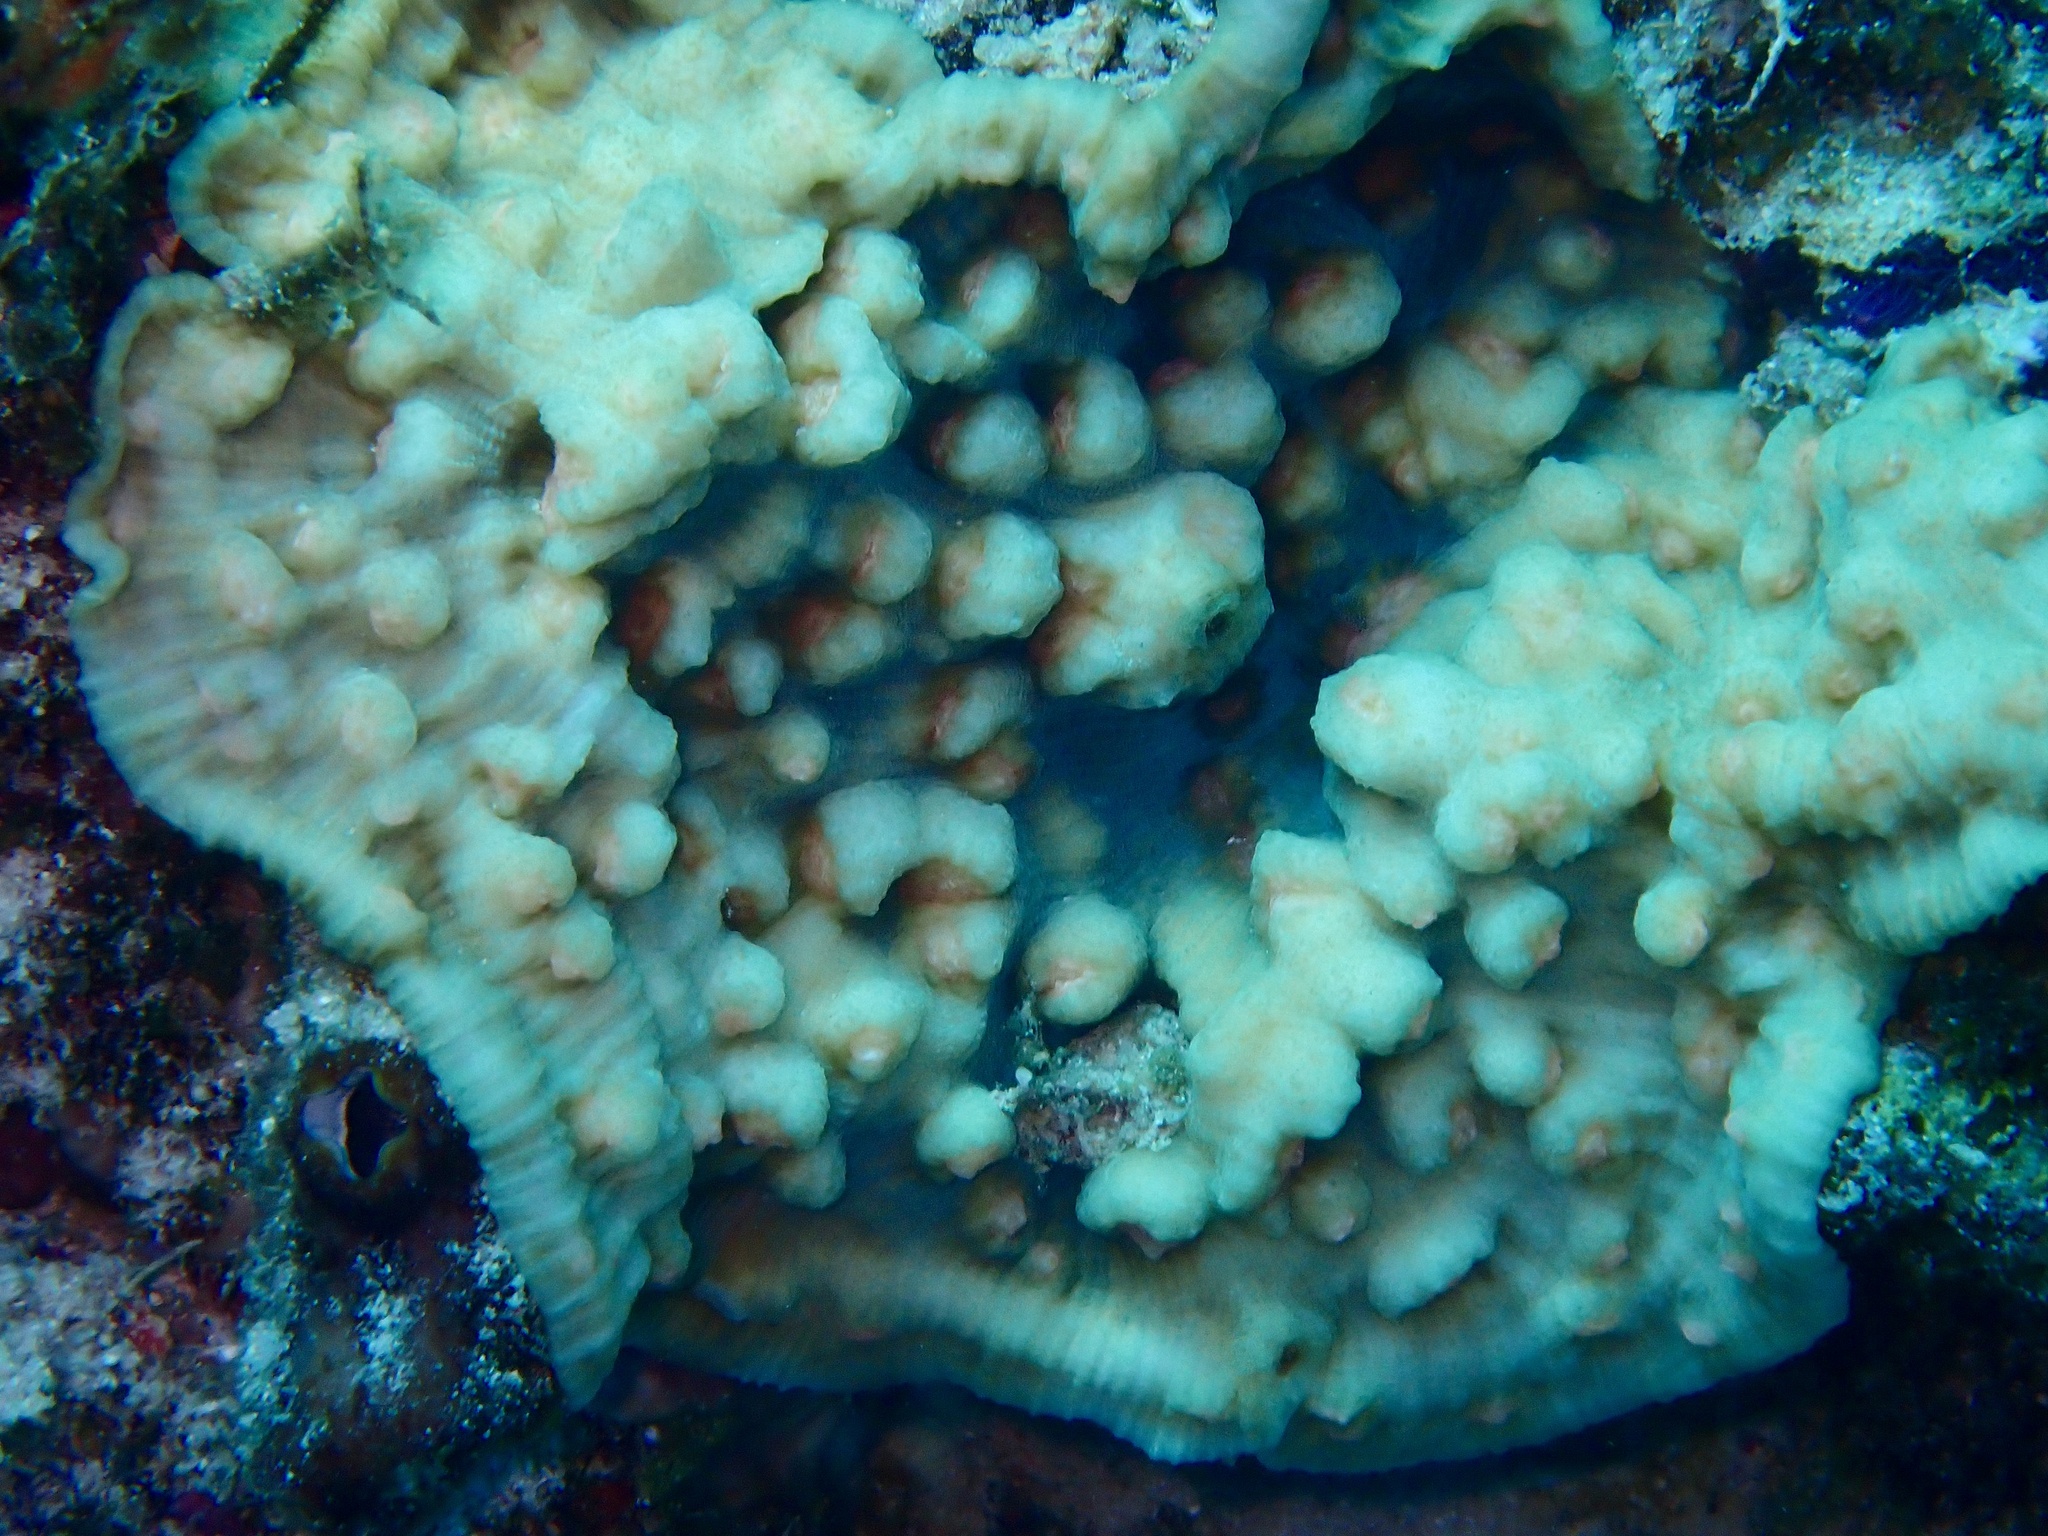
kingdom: Animalia
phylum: Cnidaria
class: Anthozoa
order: Scleractinia
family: Merulinidae
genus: Mycedium
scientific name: Mycedium elephantotus
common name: Chinese lettuce coral
